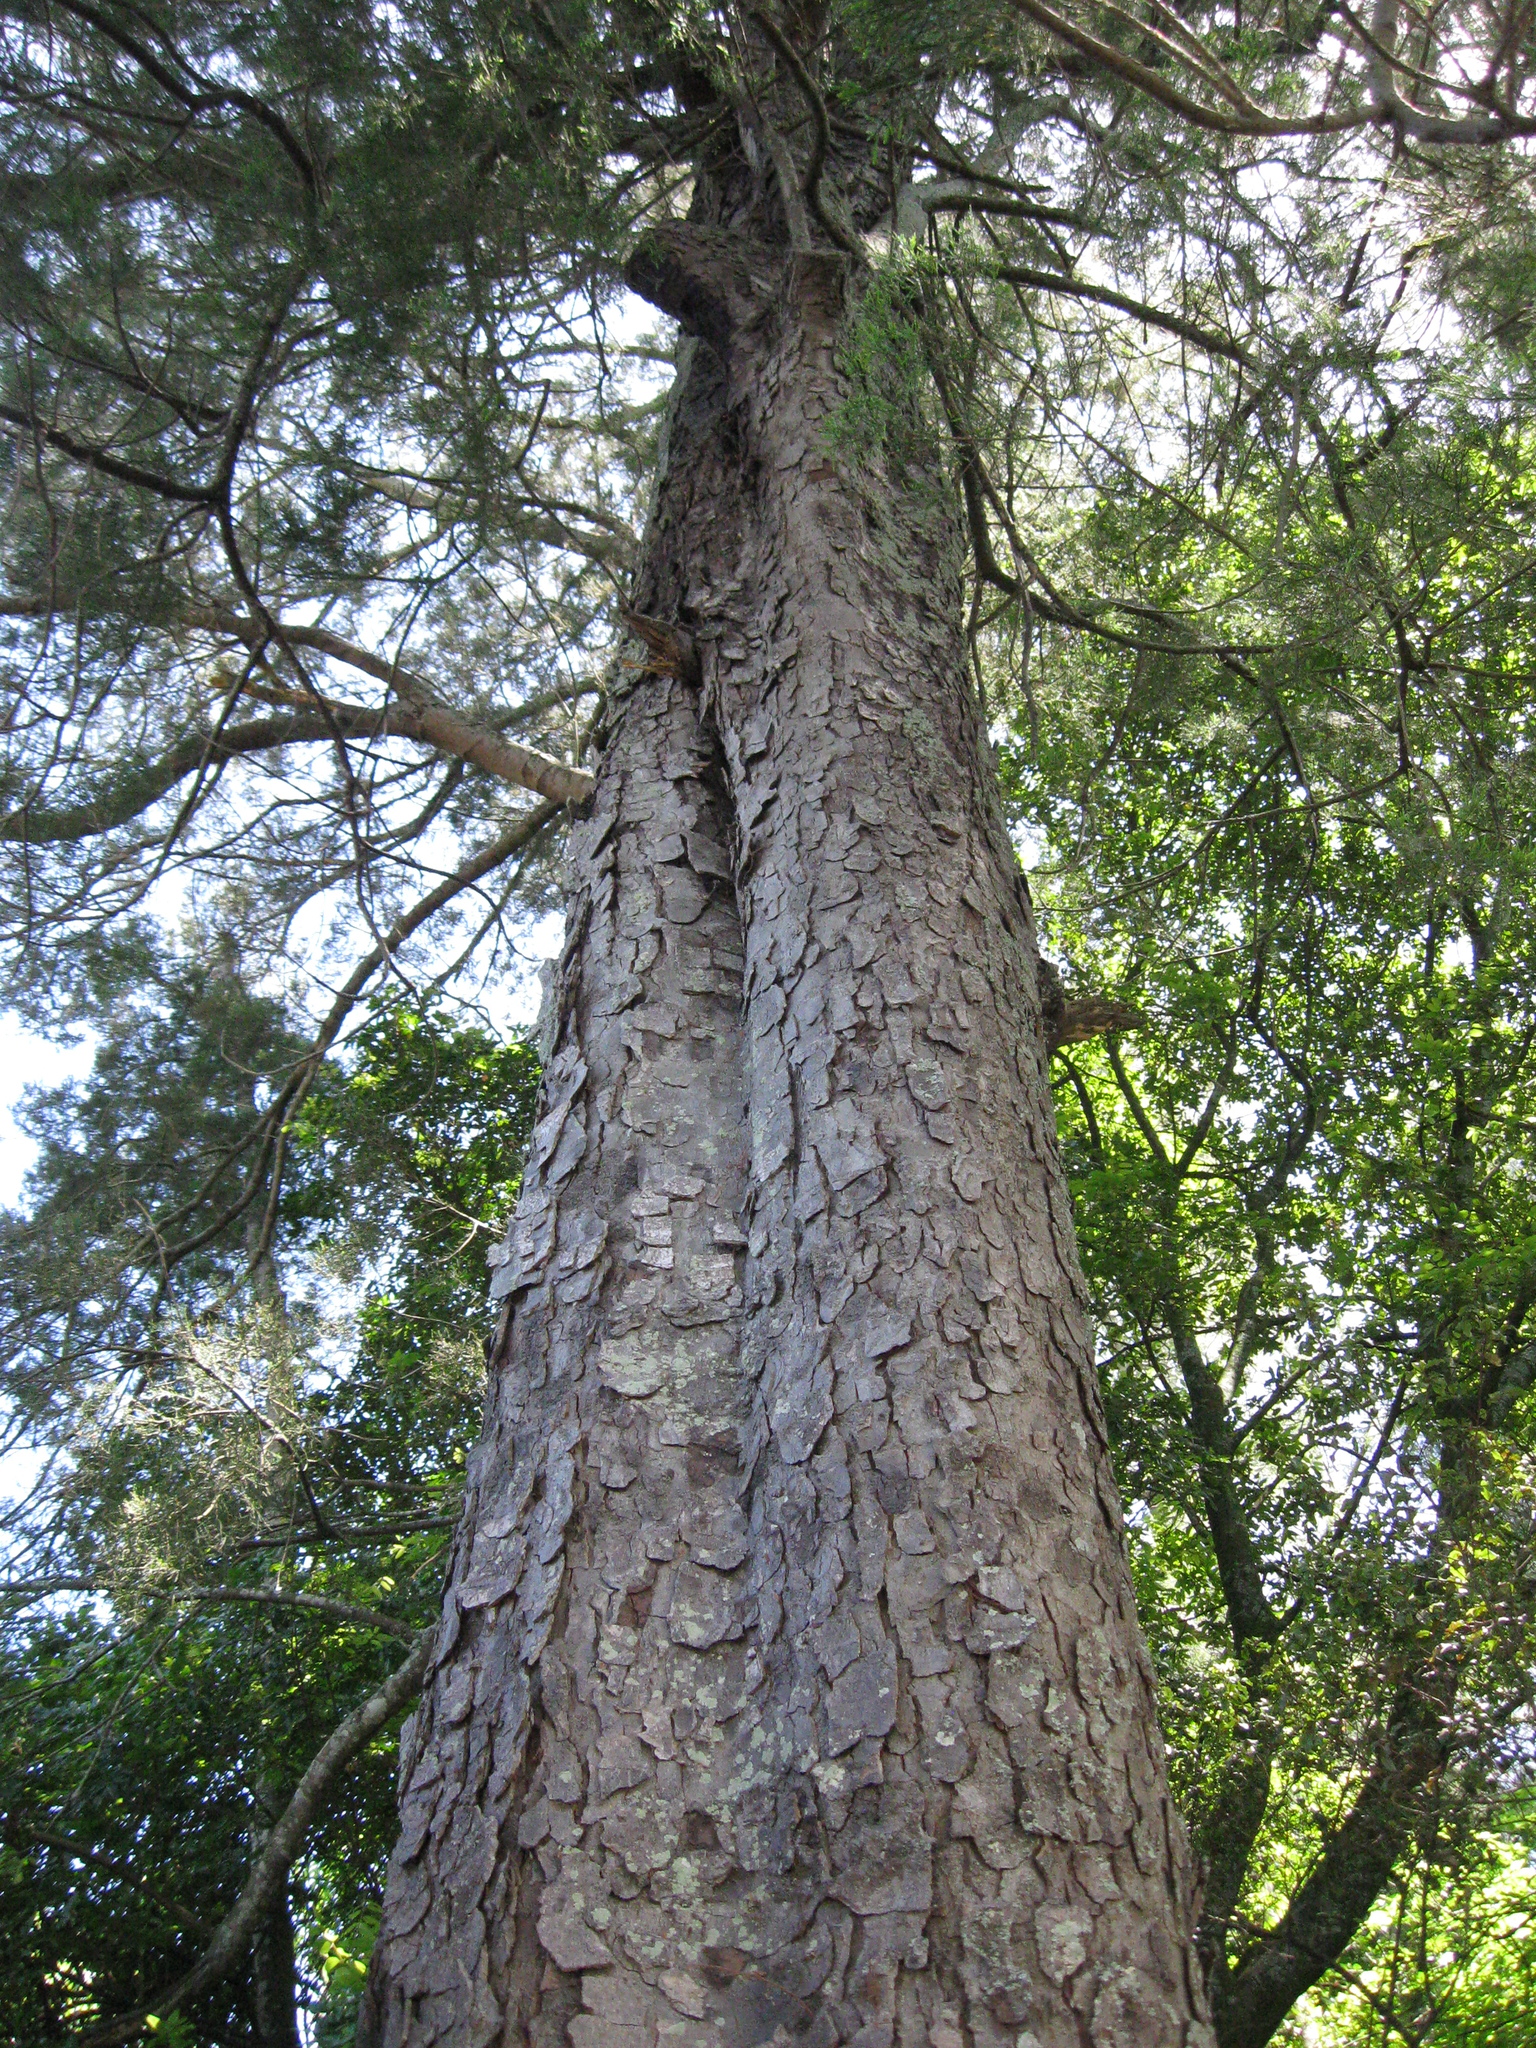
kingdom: Plantae
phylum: Tracheophyta
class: Pinopsida
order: Pinales
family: Podocarpaceae
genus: Dacrycarpus
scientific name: Dacrycarpus dacrydioides
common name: White pine
